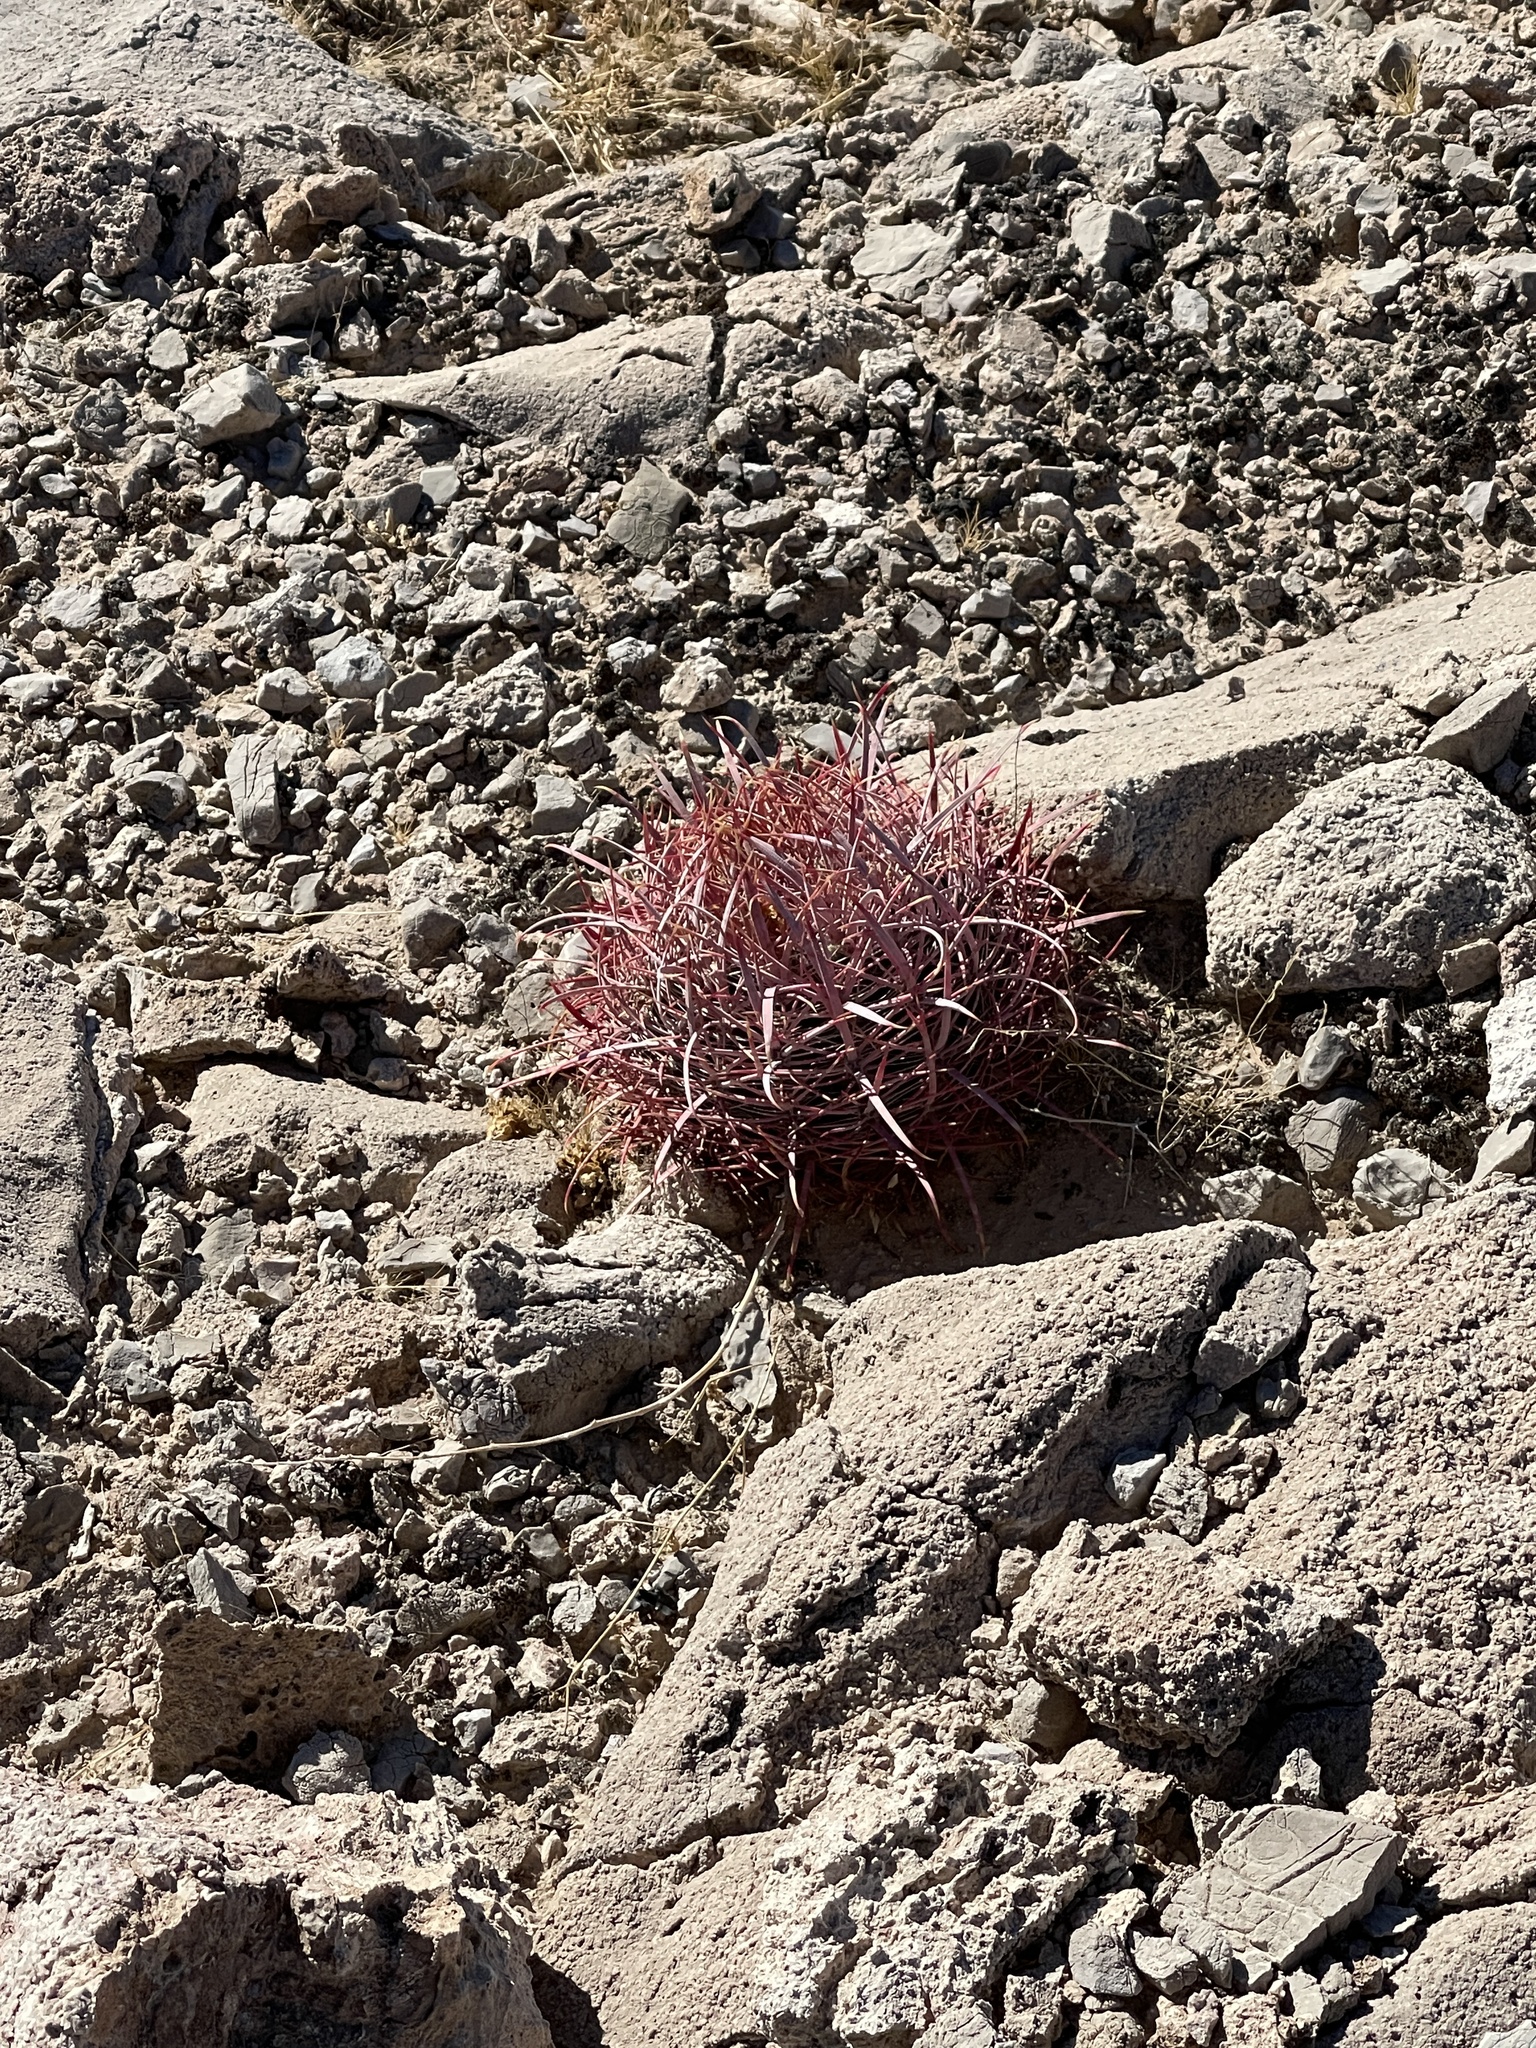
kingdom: Plantae
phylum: Tracheophyta
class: Magnoliopsida
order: Caryophyllales
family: Cactaceae
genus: Ferocactus
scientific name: Ferocactus cylindraceus
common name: California barrel cactus
